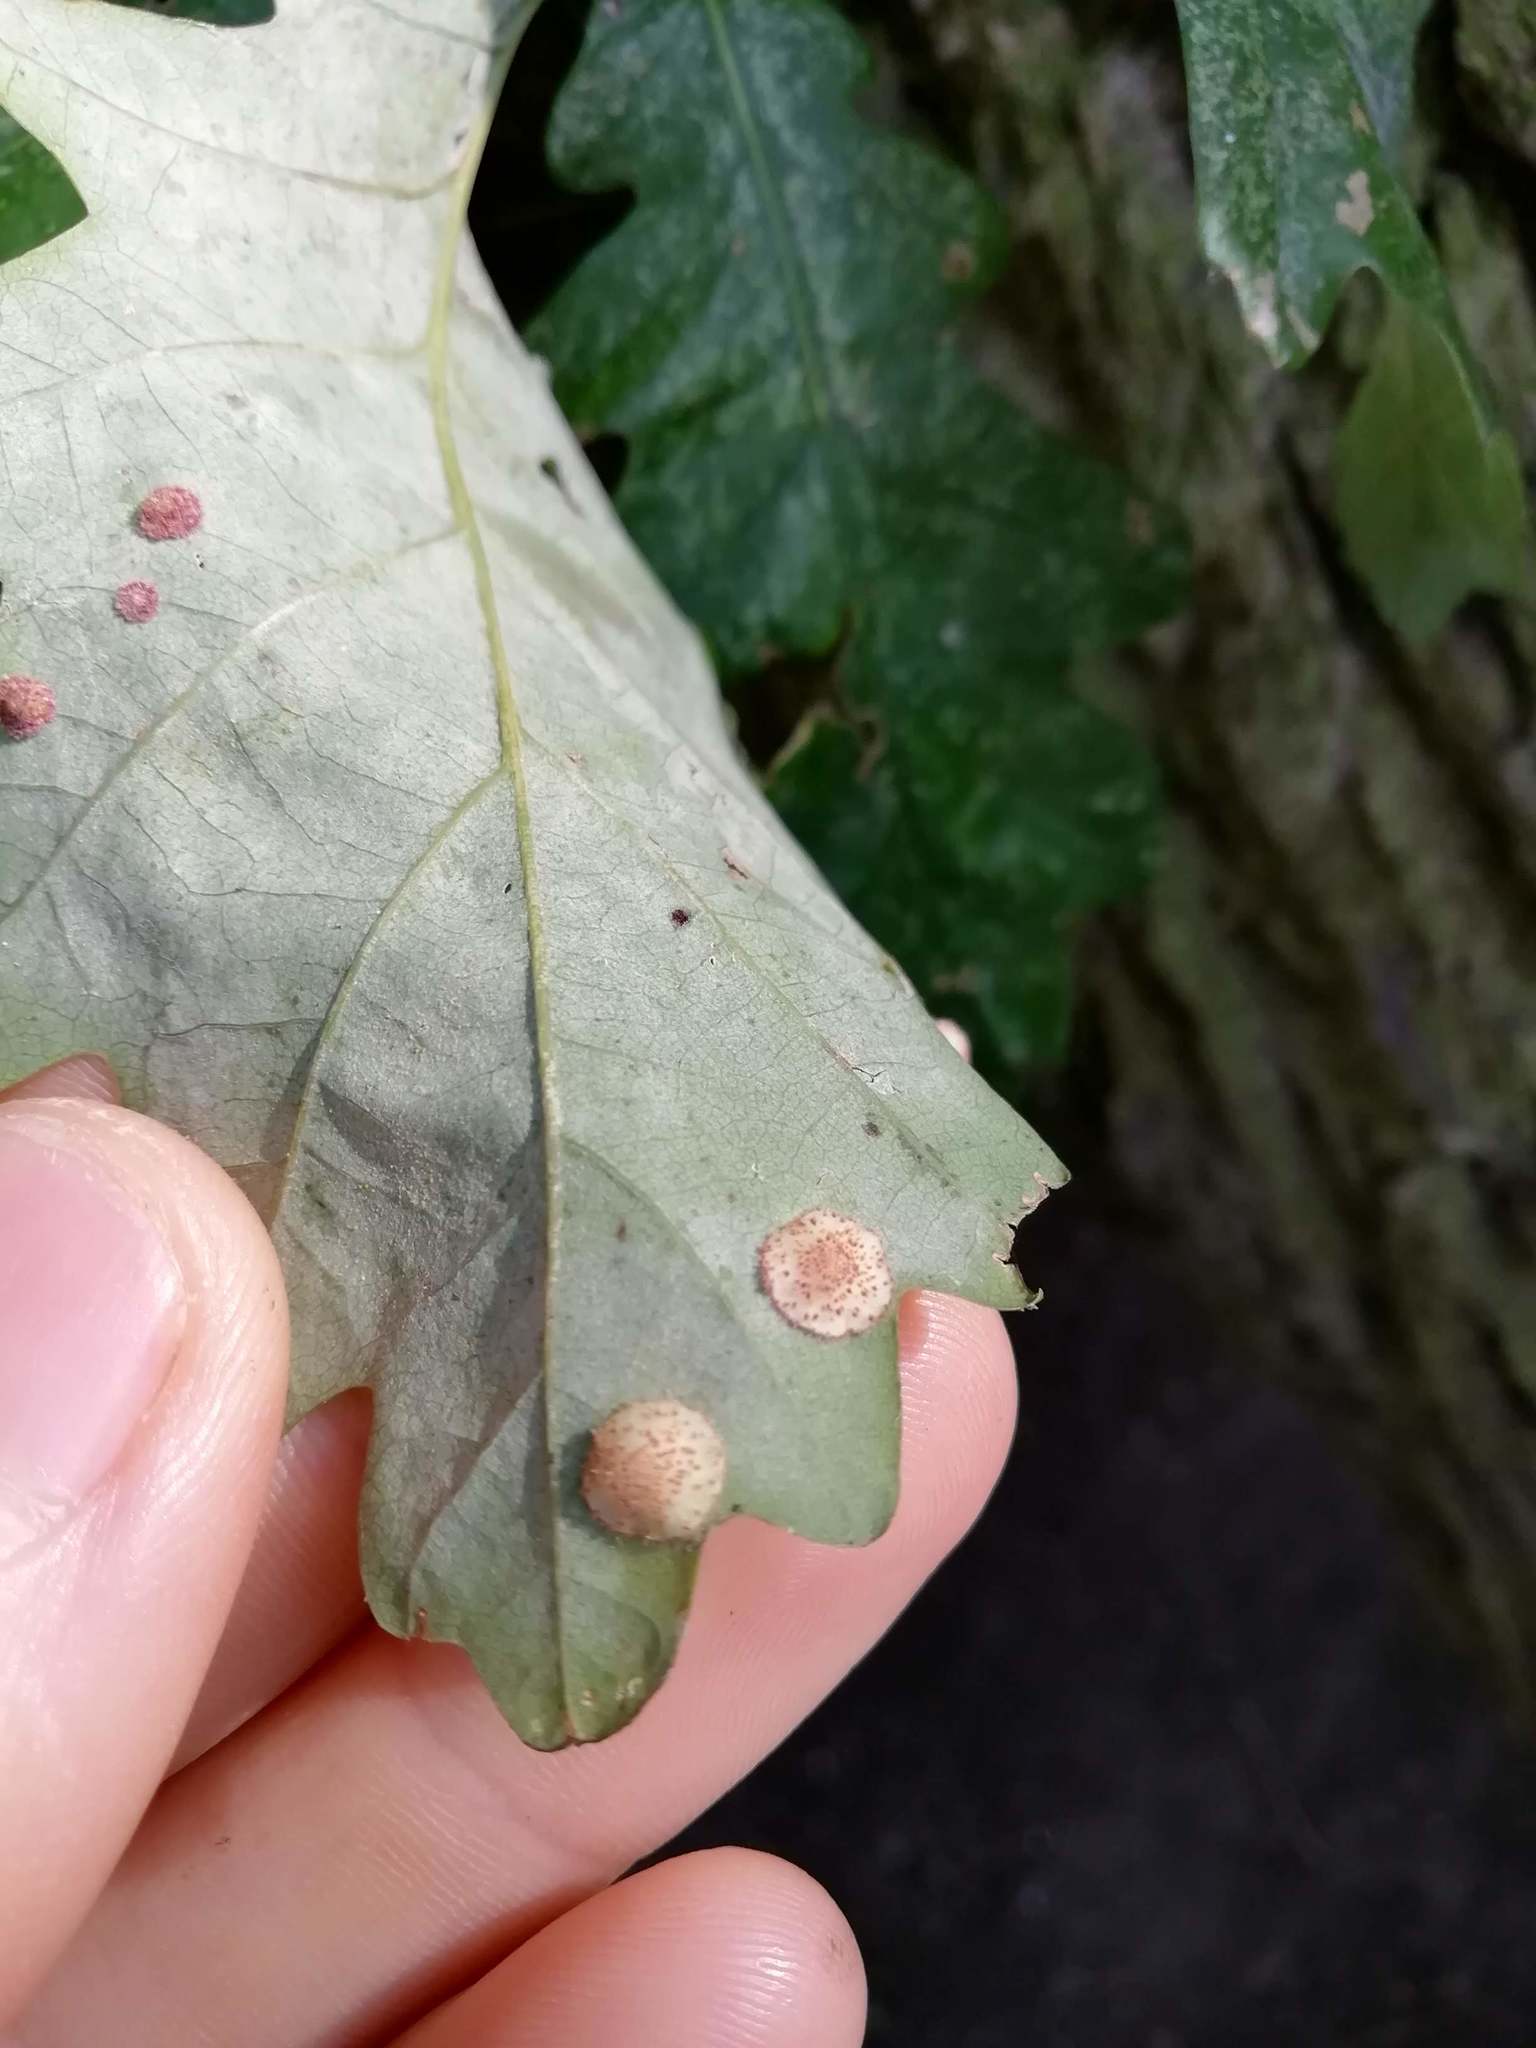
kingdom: Animalia
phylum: Arthropoda
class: Insecta
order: Hymenoptera
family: Cynipidae
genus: Neuroterus
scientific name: Neuroterus quercusbaccarum
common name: Common spangle gall
